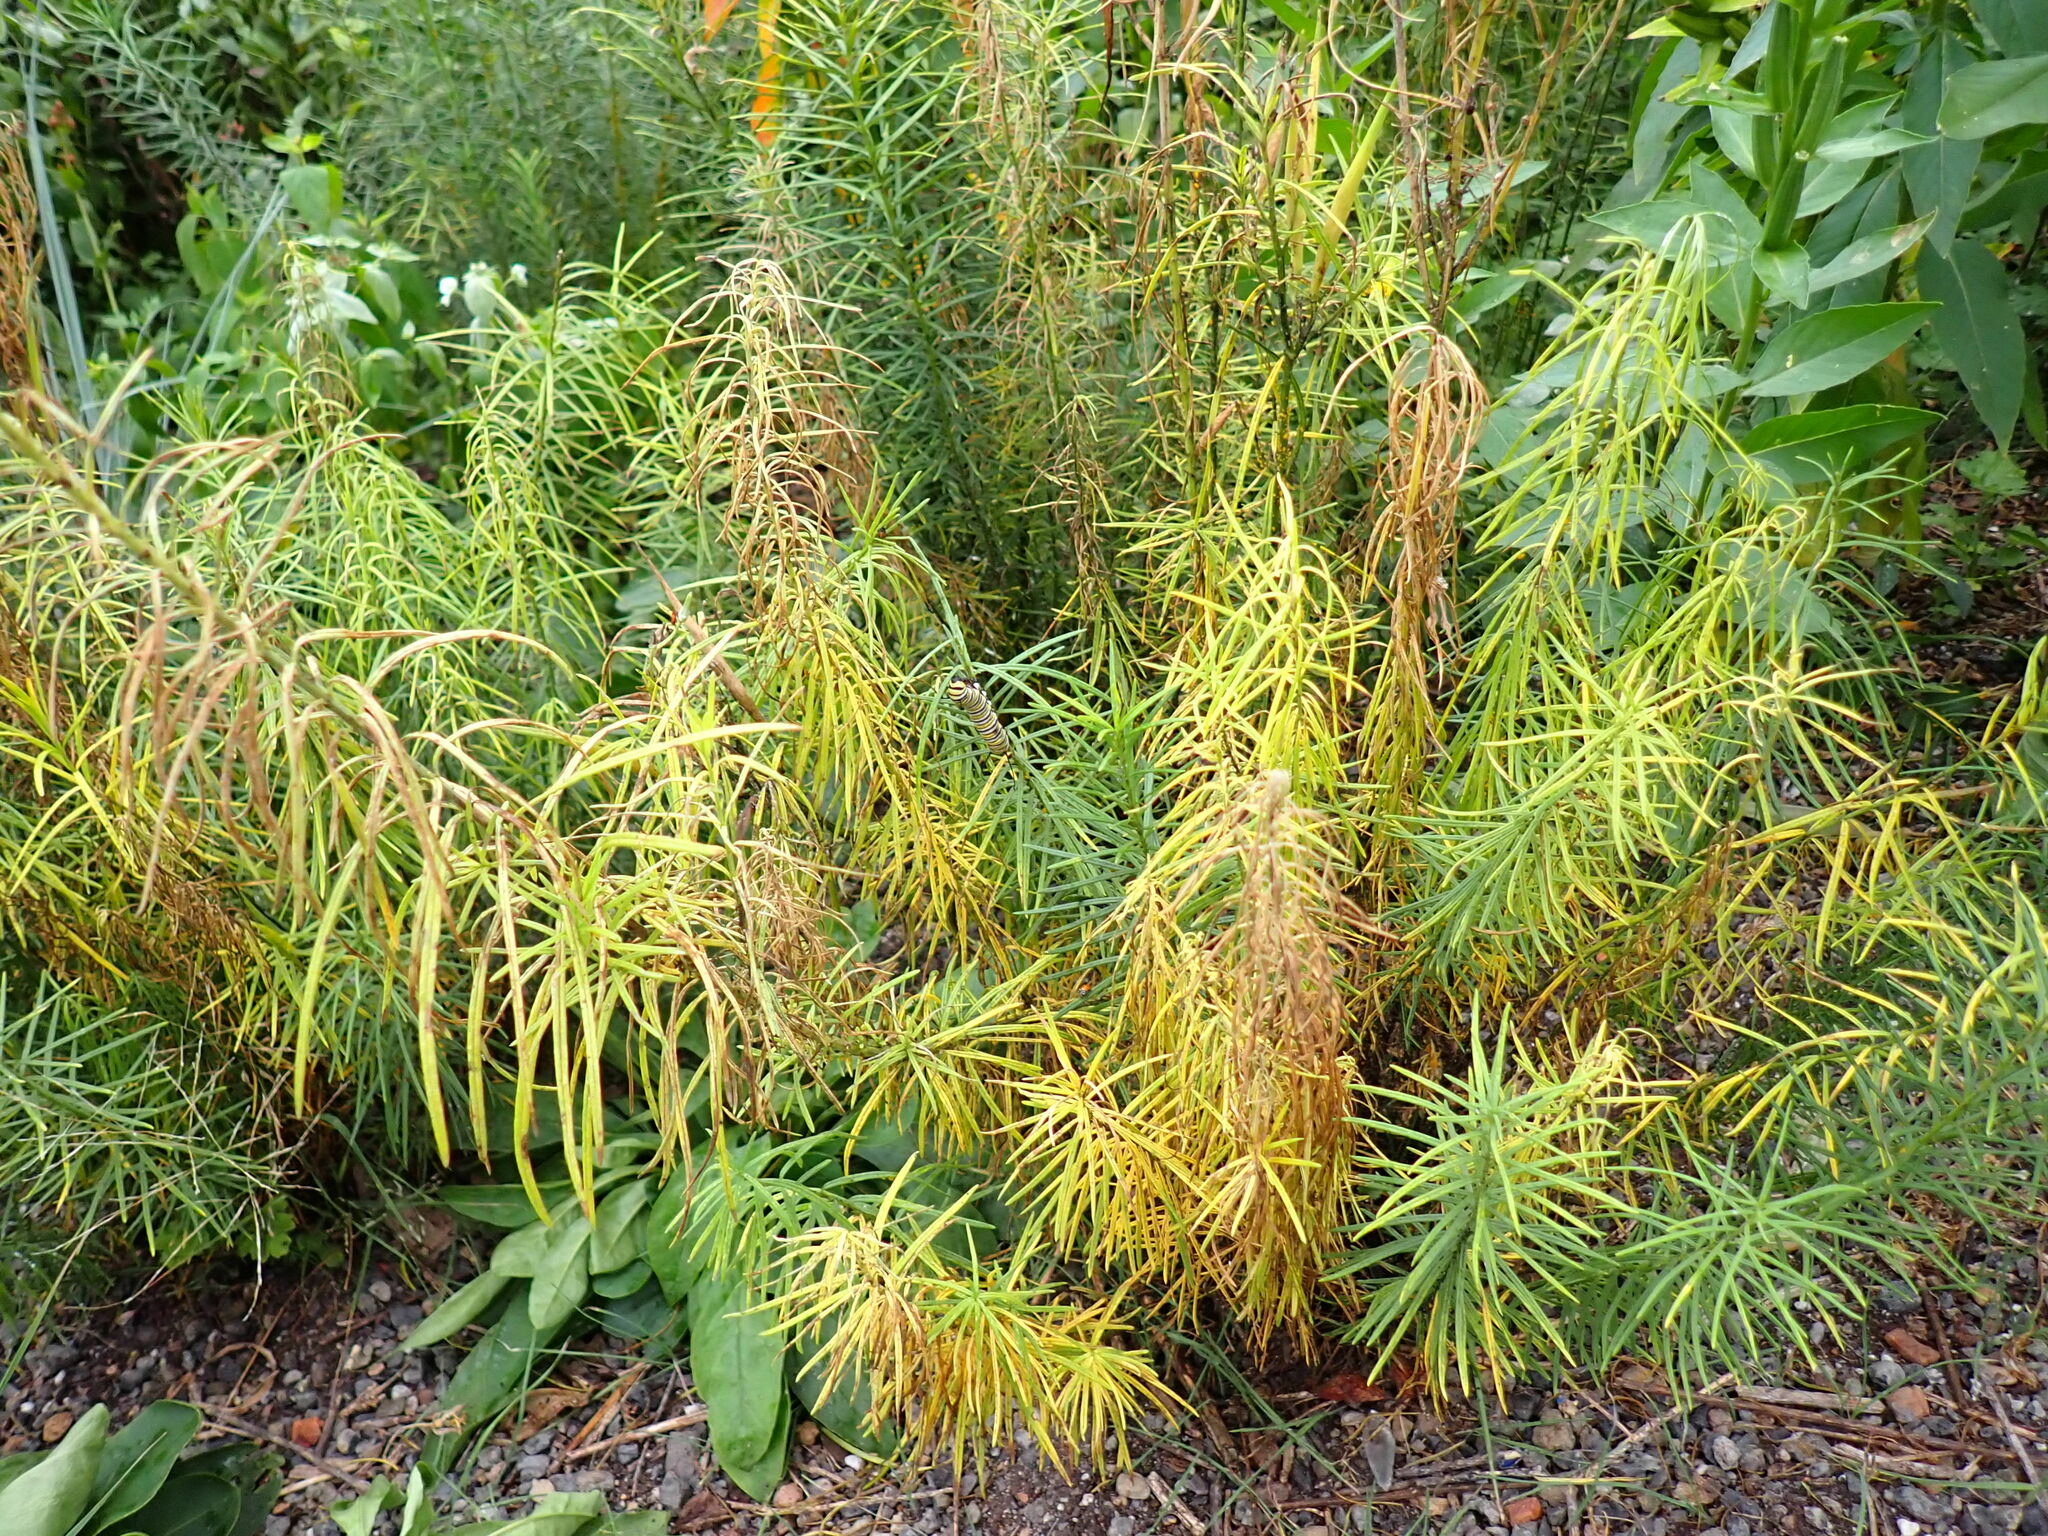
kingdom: Animalia
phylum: Arthropoda
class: Insecta
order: Lepidoptera
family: Nymphalidae
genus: Danaus
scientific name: Danaus plexippus
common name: Monarch
